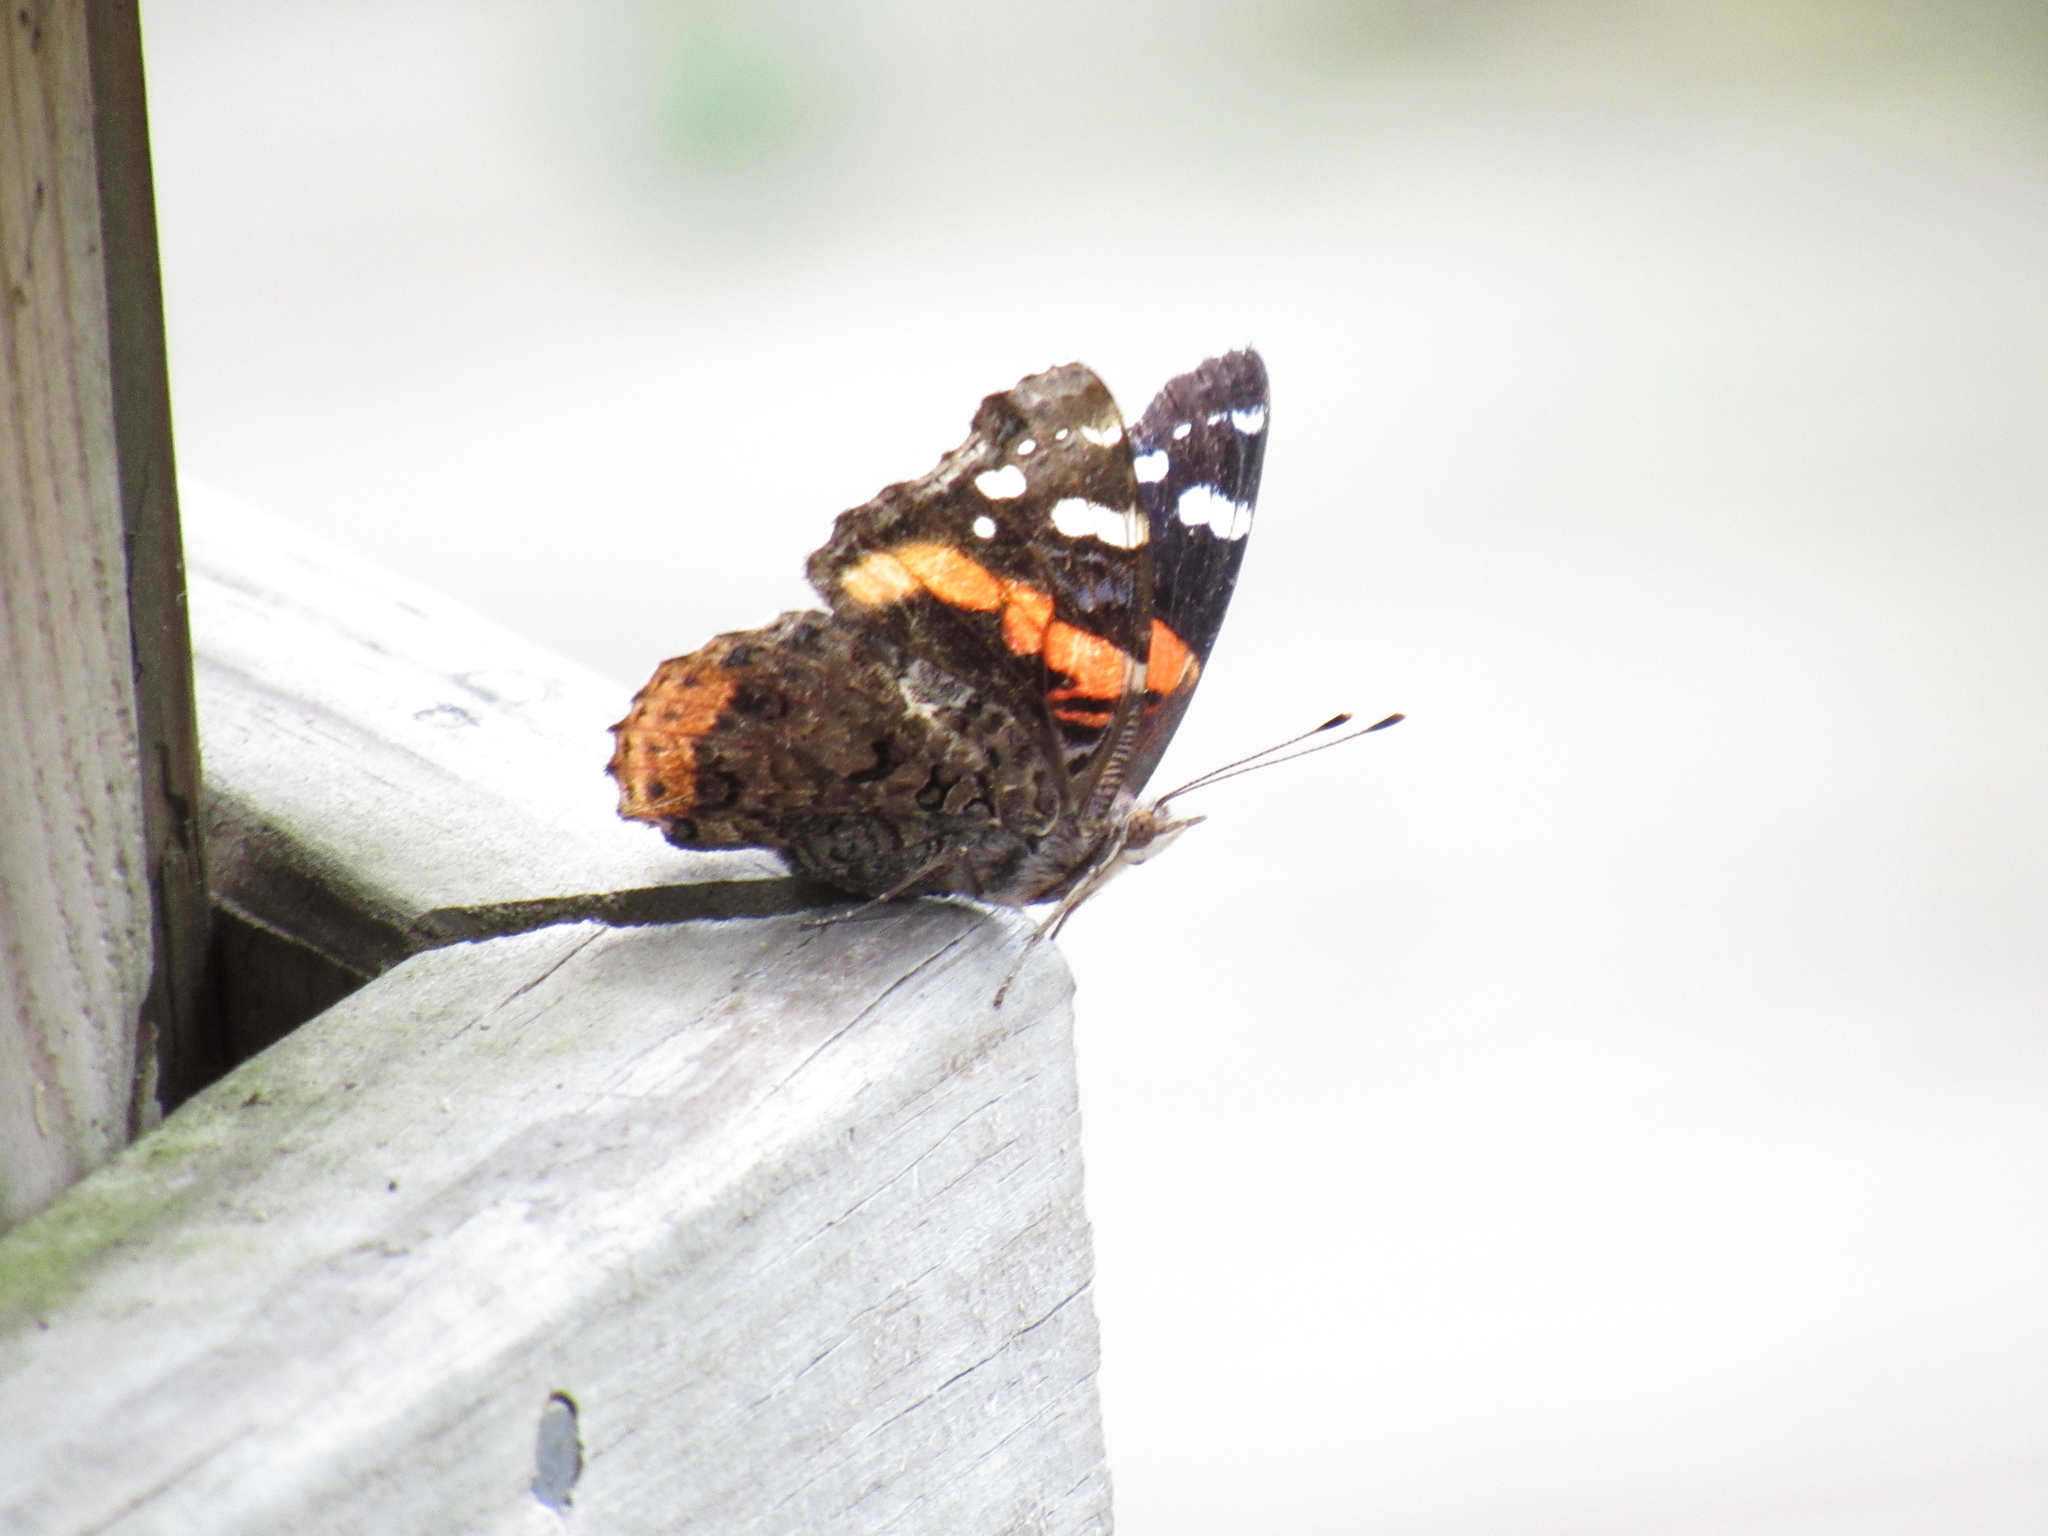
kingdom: Animalia
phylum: Arthropoda
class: Insecta
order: Lepidoptera
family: Nymphalidae
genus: Vanessa
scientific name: Vanessa atalanta
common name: Red admiral
